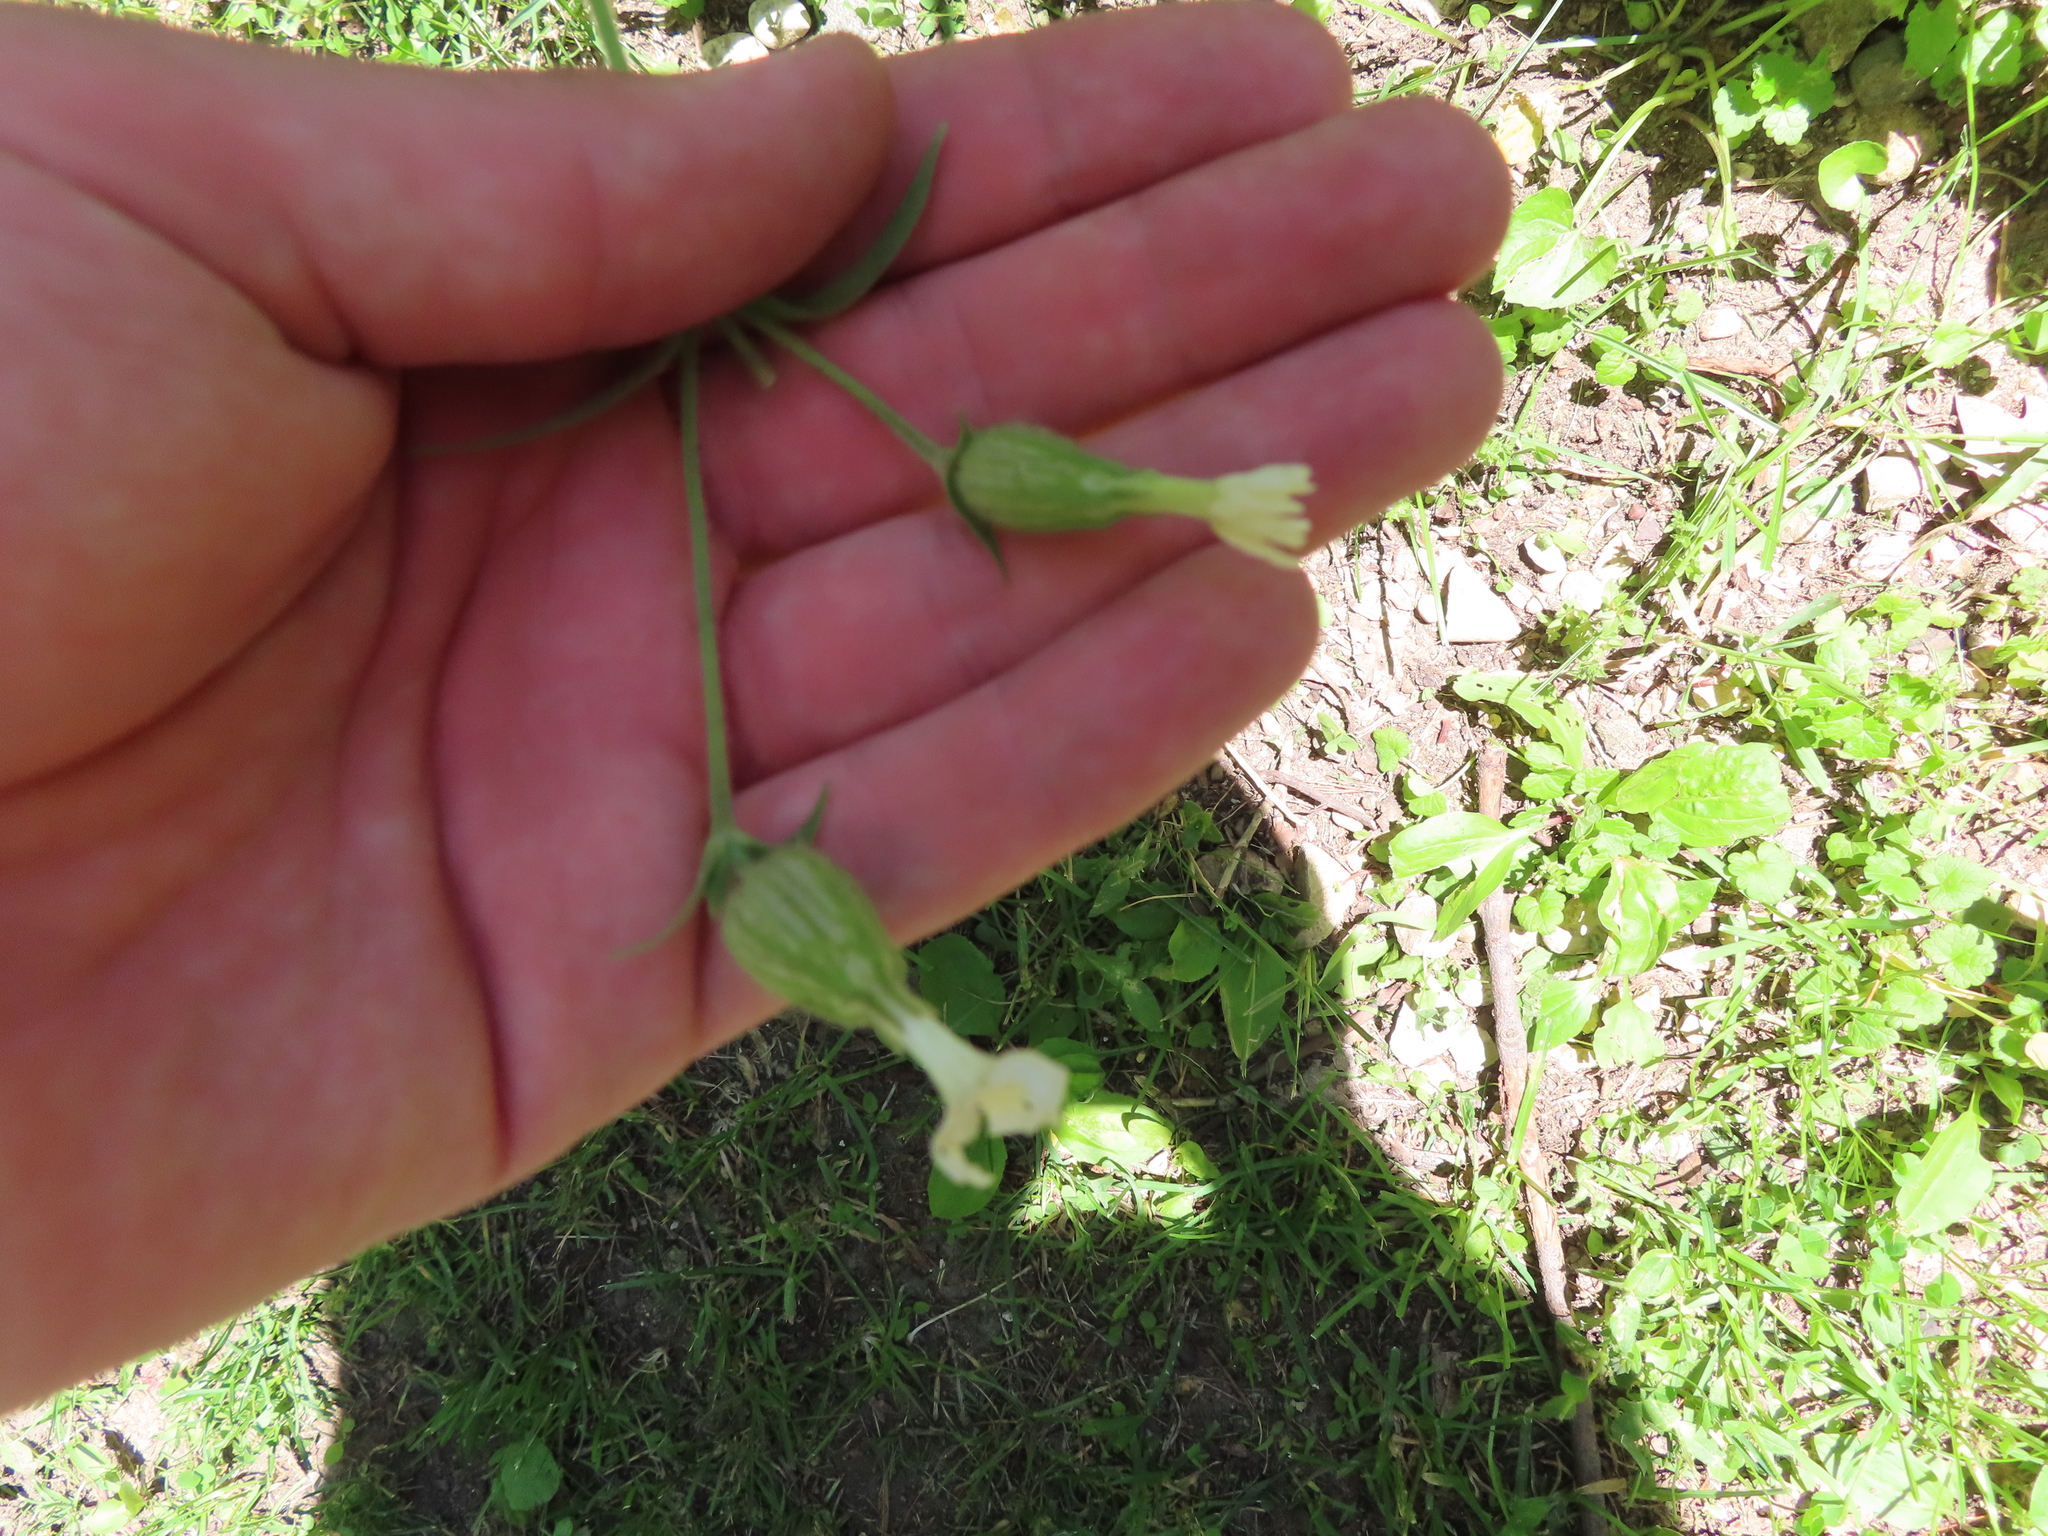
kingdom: Plantae
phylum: Tracheophyta
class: Magnoliopsida
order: Caryophyllales
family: Caryophyllaceae
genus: Silene
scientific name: Silene latifolia
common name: White campion
